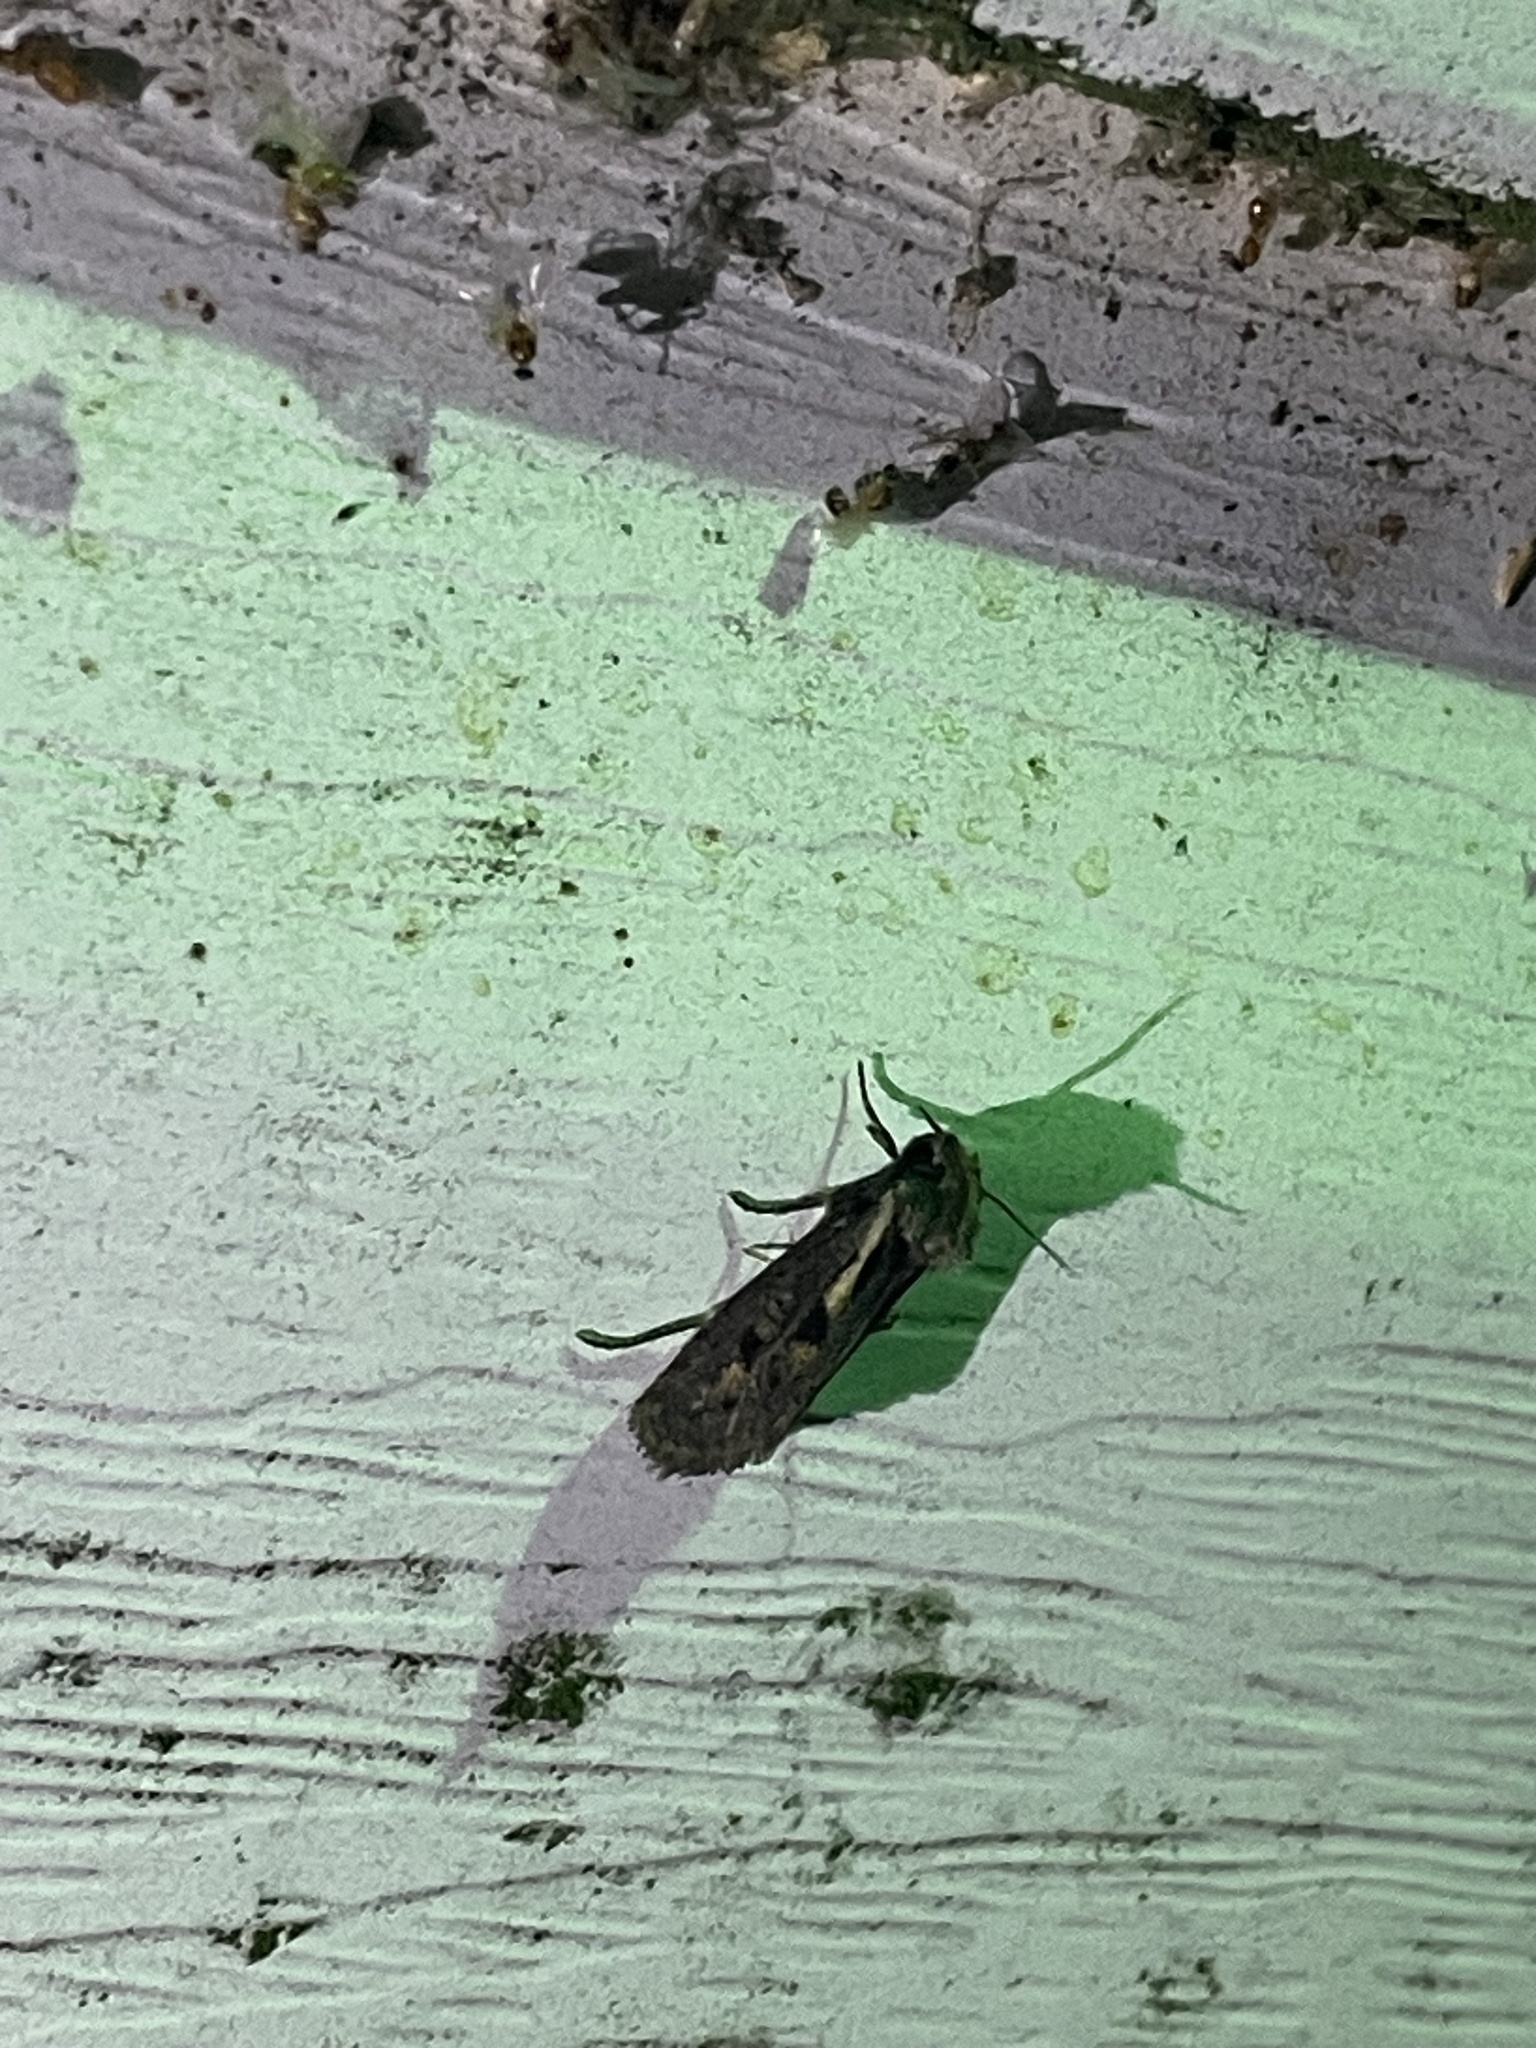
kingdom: Animalia
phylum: Arthropoda
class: Insecta
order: Lepidoptera
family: Tineidae
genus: Acrolophus
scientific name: Acrolophus popeanella
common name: Clemens' grass tubeworm moth
